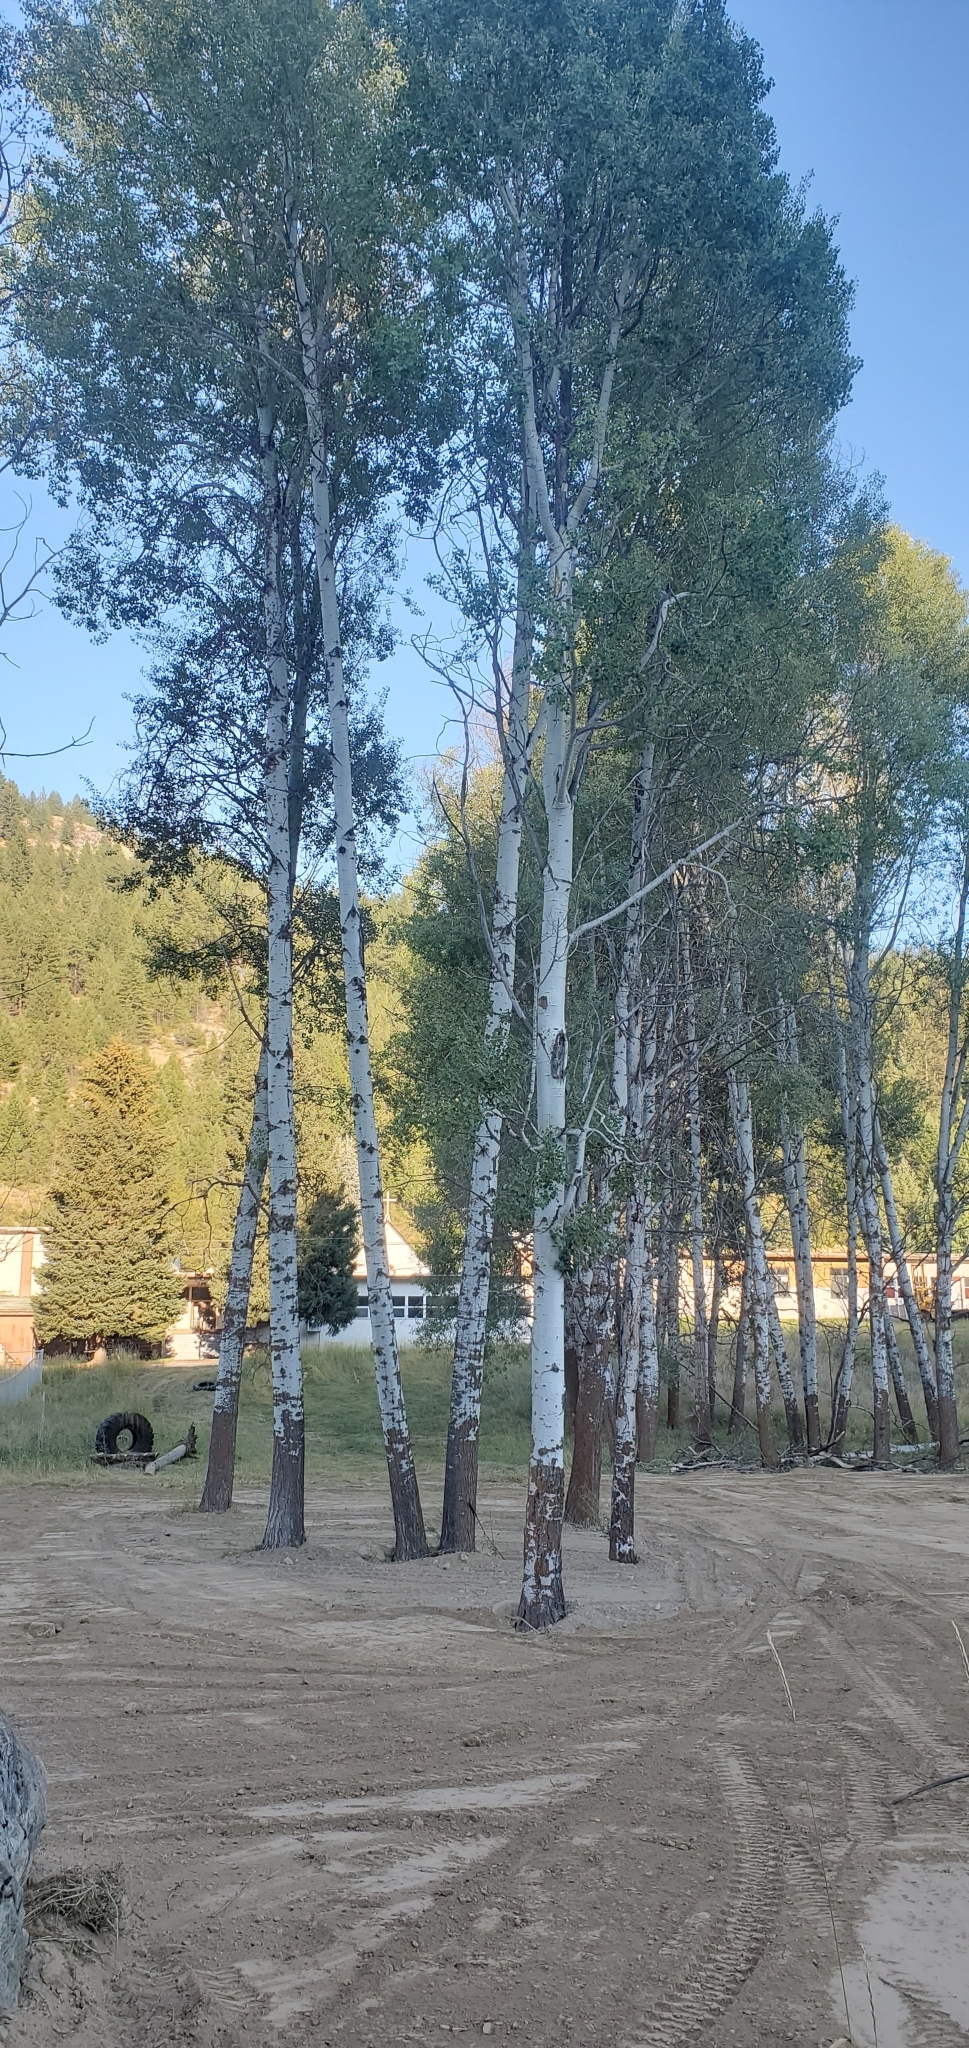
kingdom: Plantae
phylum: Tracheophyta
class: Magnoliopsida
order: Malpighiales
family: Salicaceae
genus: Populus
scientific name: Populus tremuloides
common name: Quaking aspen
